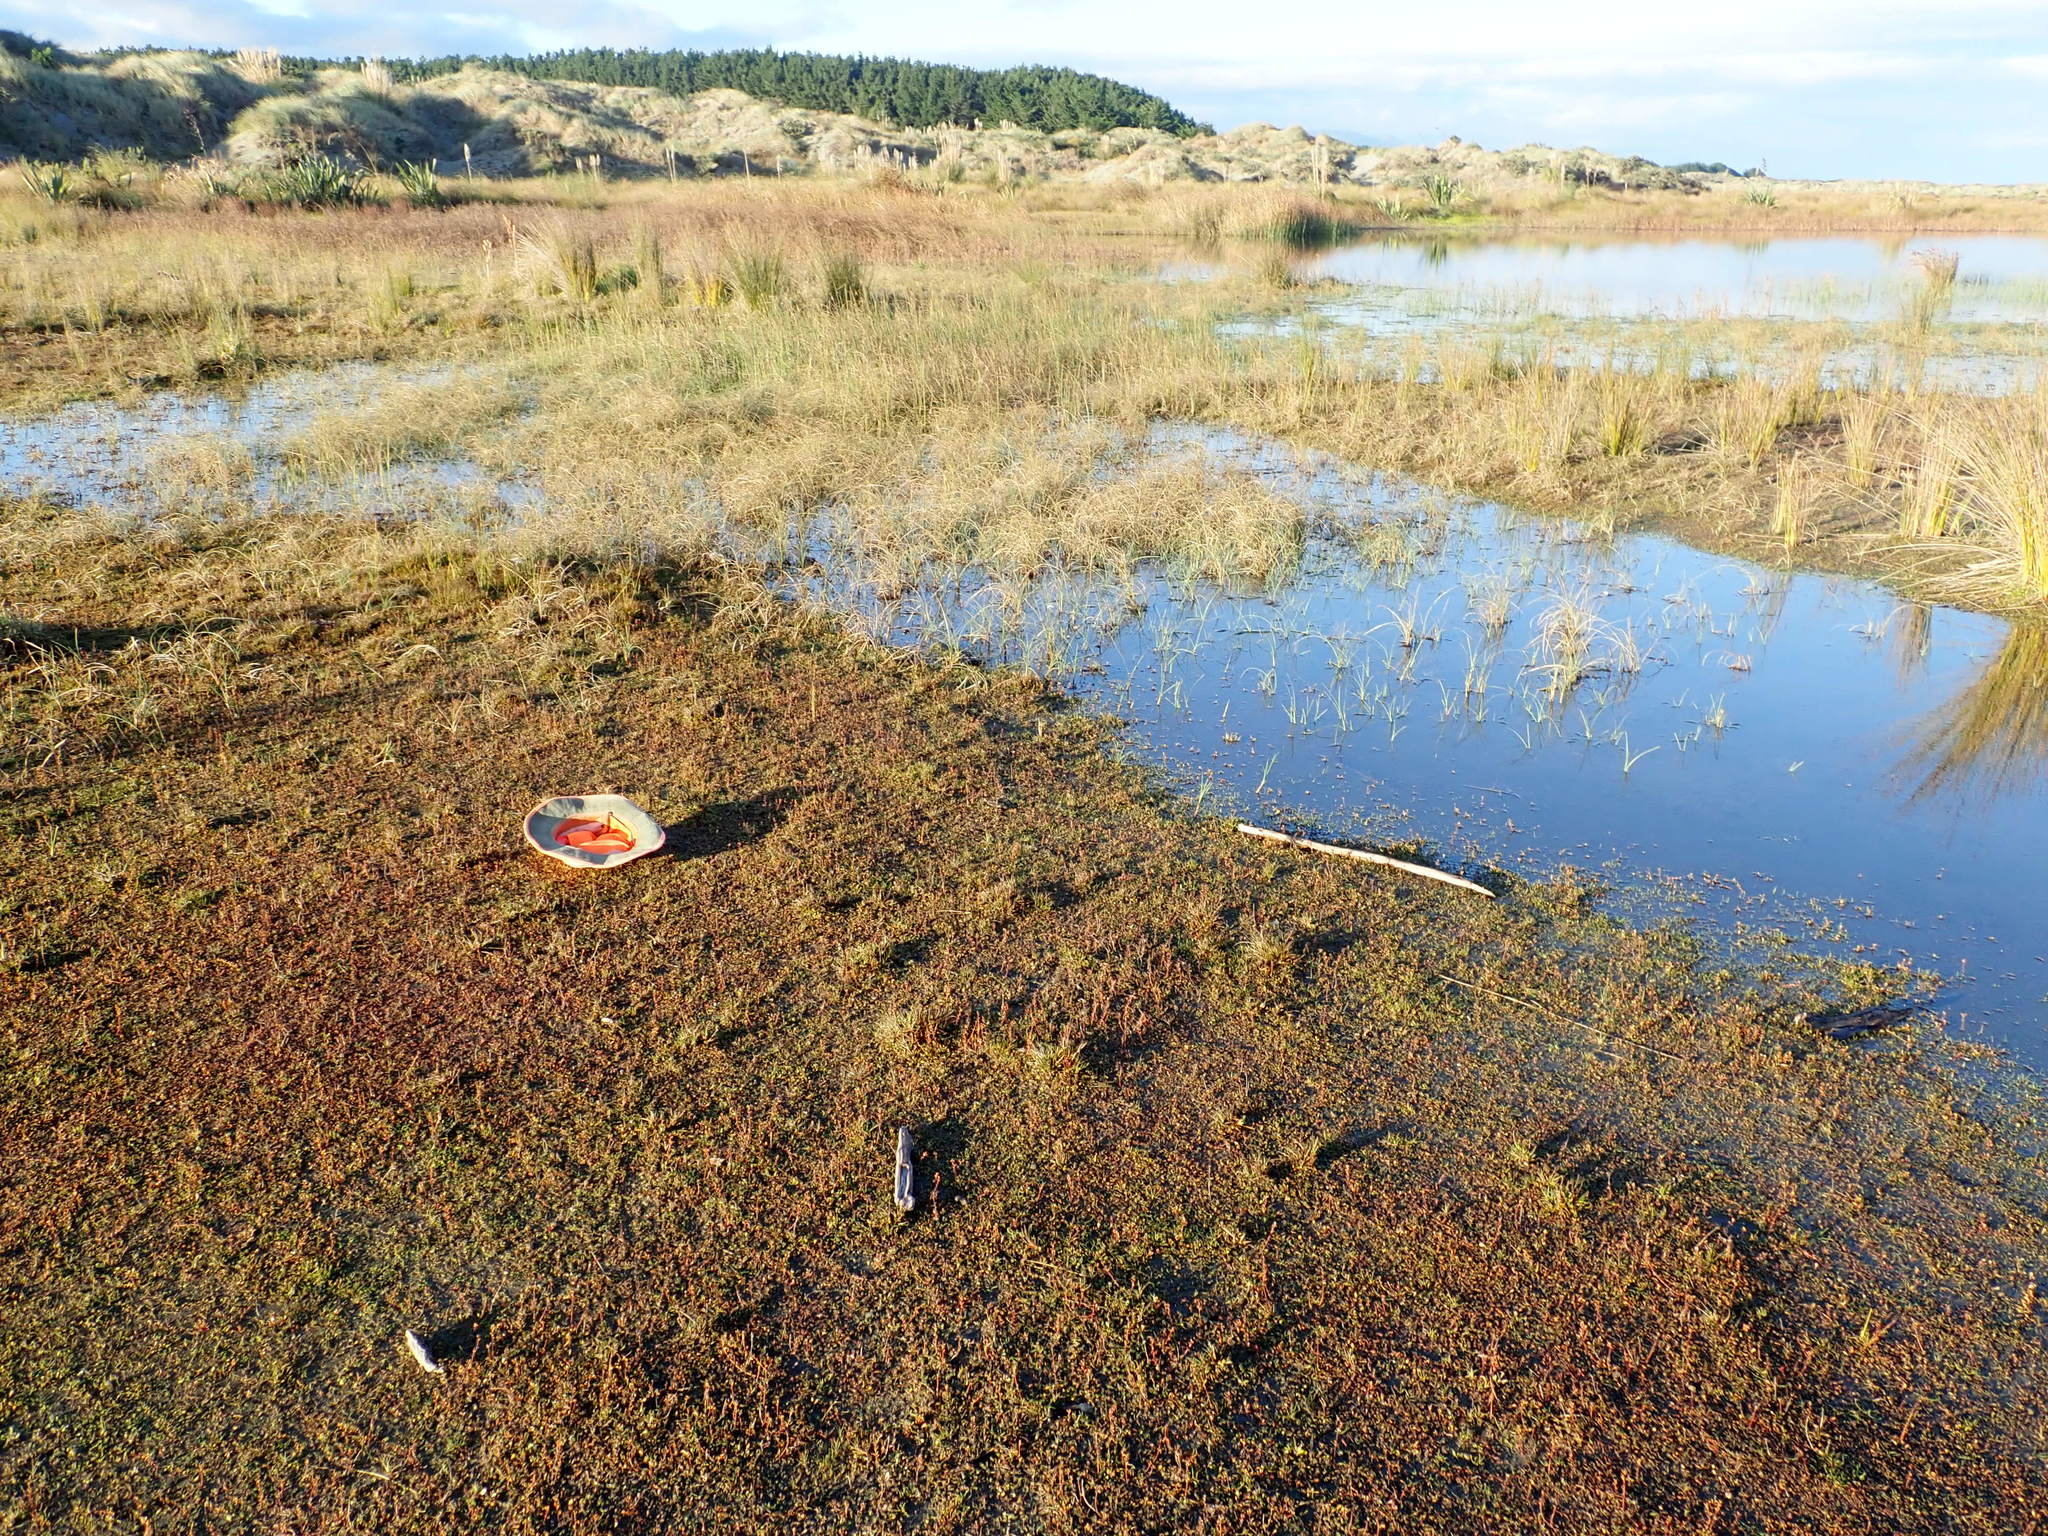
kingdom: Plantae
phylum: Tracheophyta
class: Magnoliopsida
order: Ranunculales
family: Ranunculaceae
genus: Ranunculus
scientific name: Ranunculus acaulis
